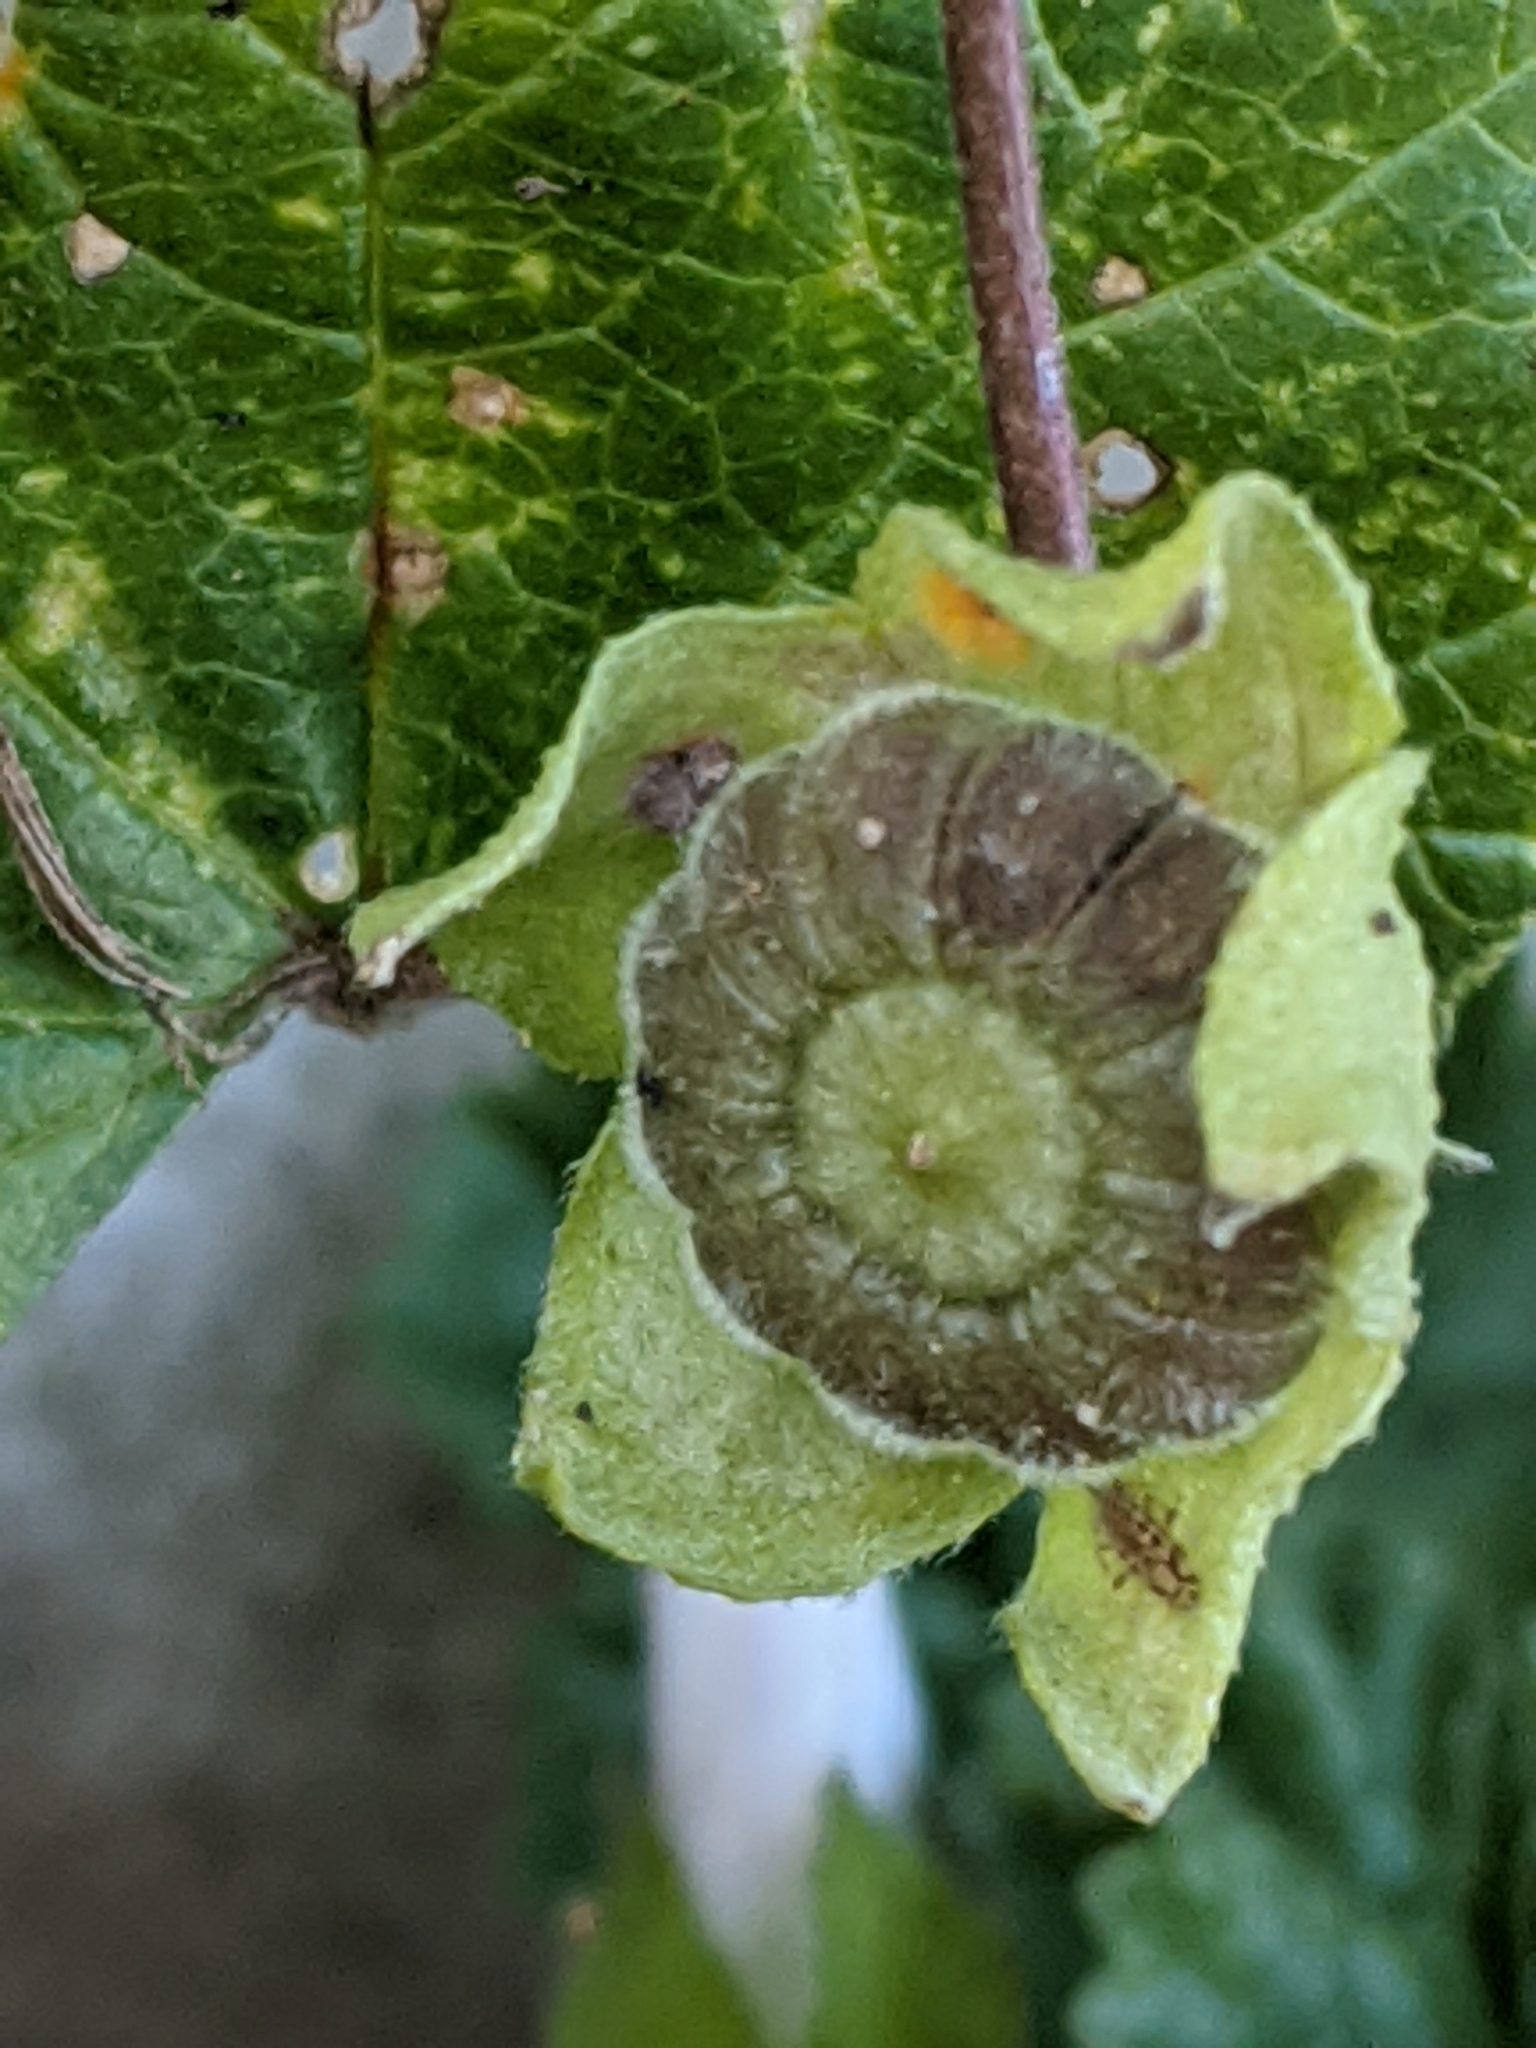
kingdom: Plantae
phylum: Tracheophyta
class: Magnoliopsida
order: Malvales
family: Malvaceae
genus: Malva
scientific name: Malva neglecta
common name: Common mallow
